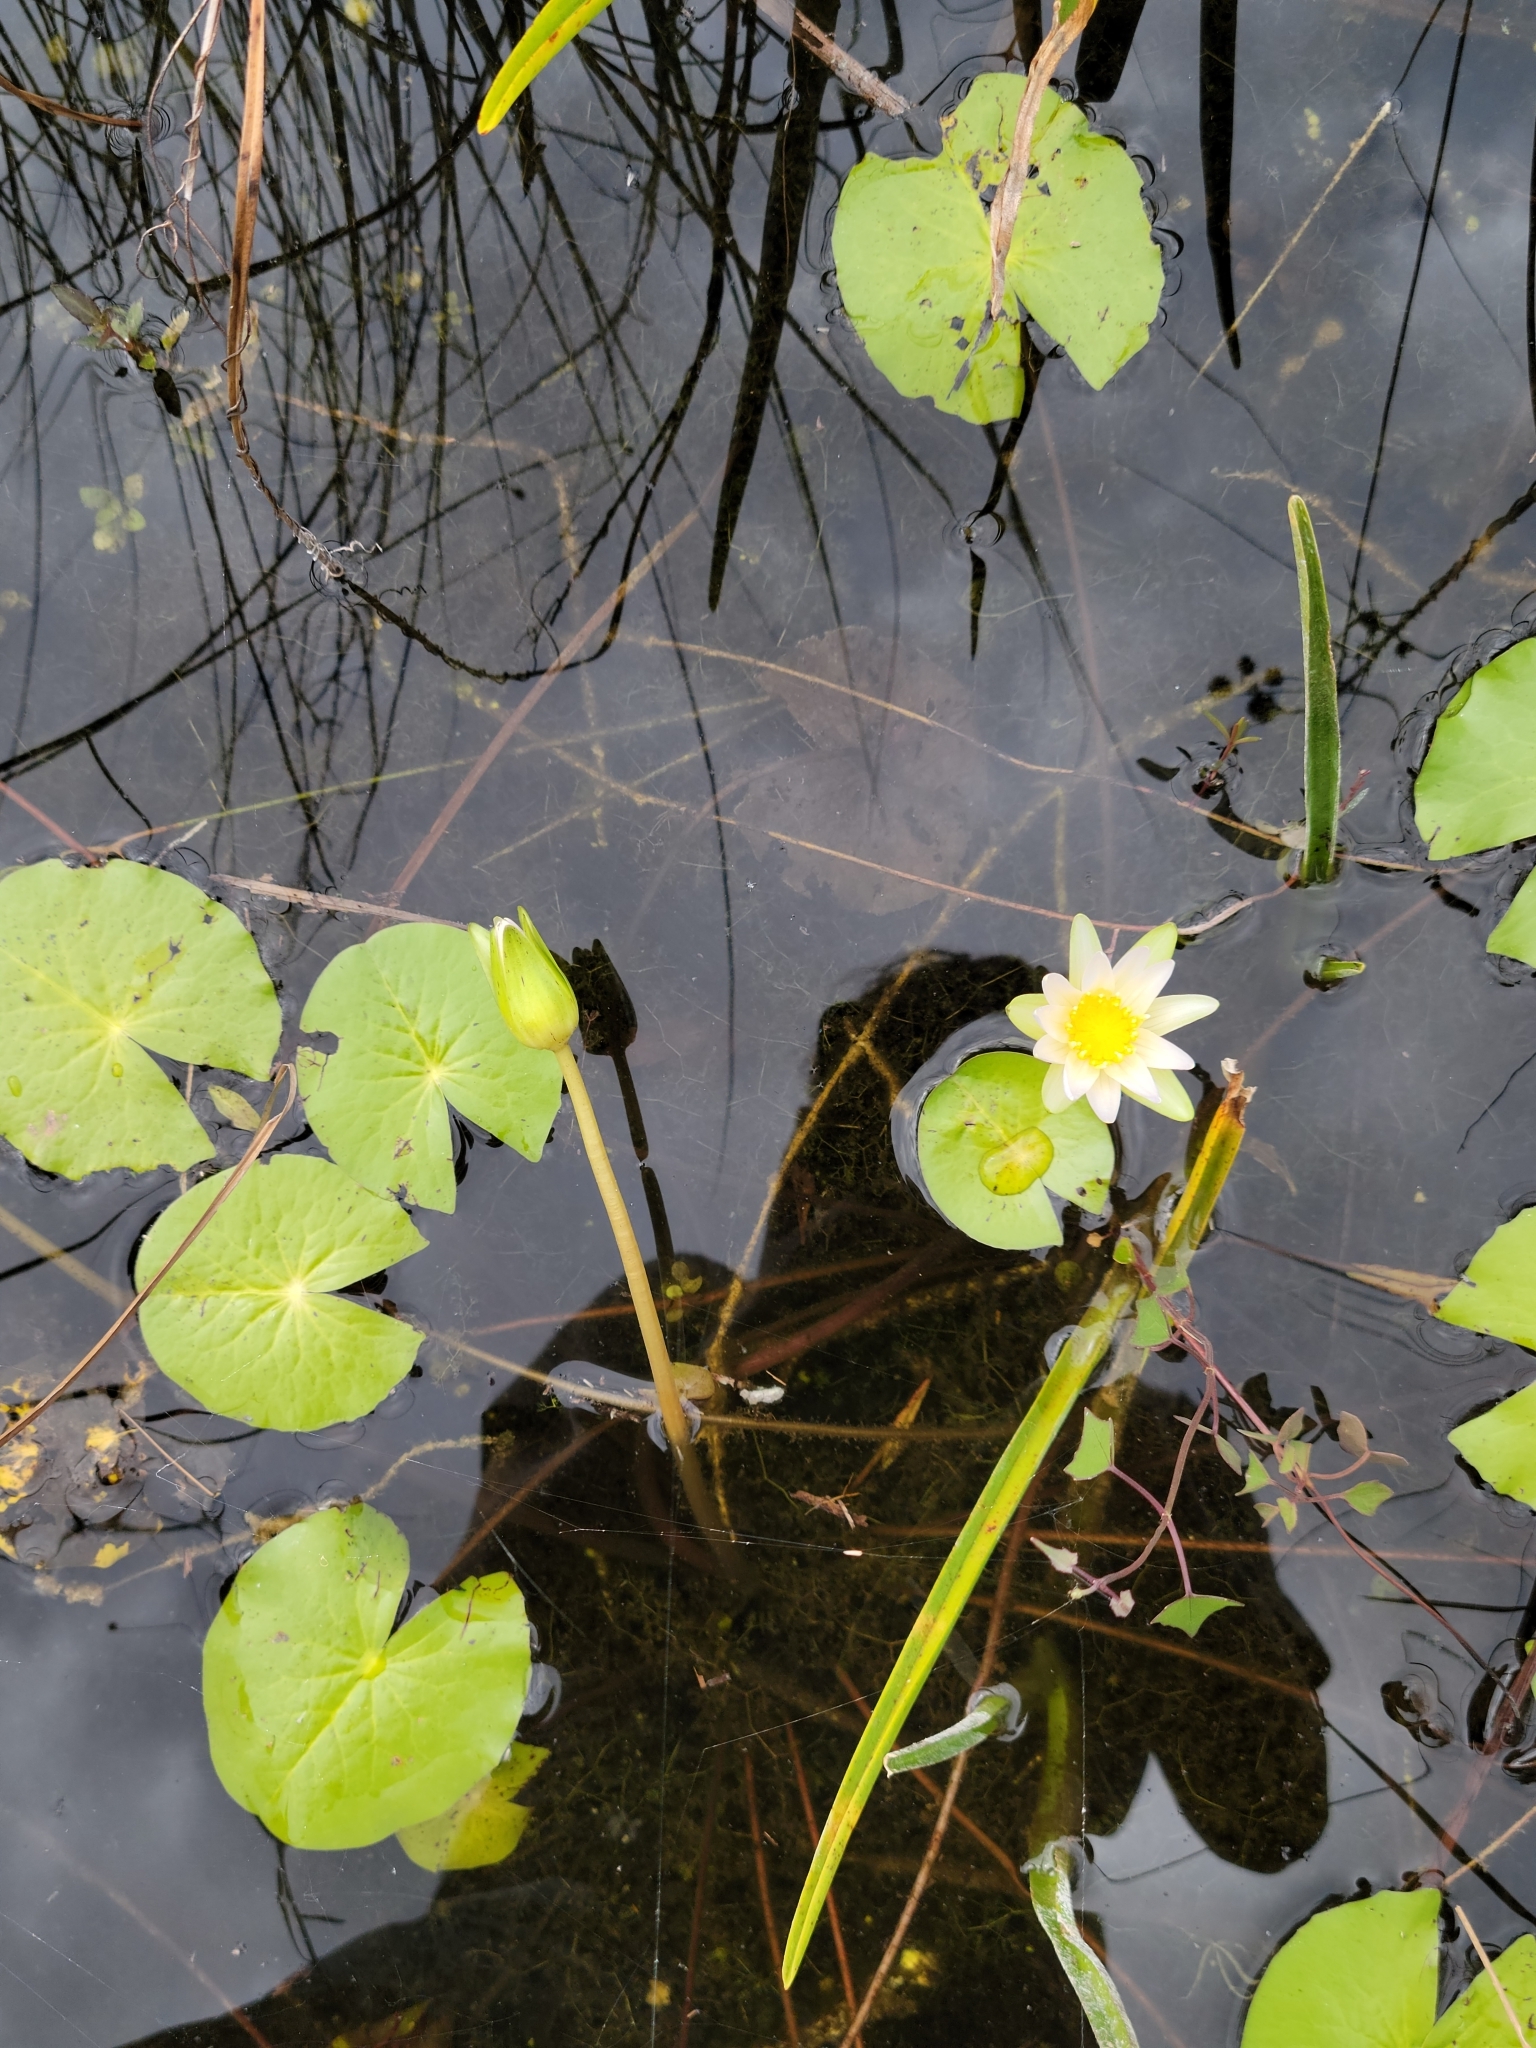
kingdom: Plantae
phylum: Tracheophyta
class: Magnoliopsida
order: Nymphaeales
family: Nymphaeaceae
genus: Nymphaea
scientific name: Nymphaea elegans
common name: Blue water-lily
